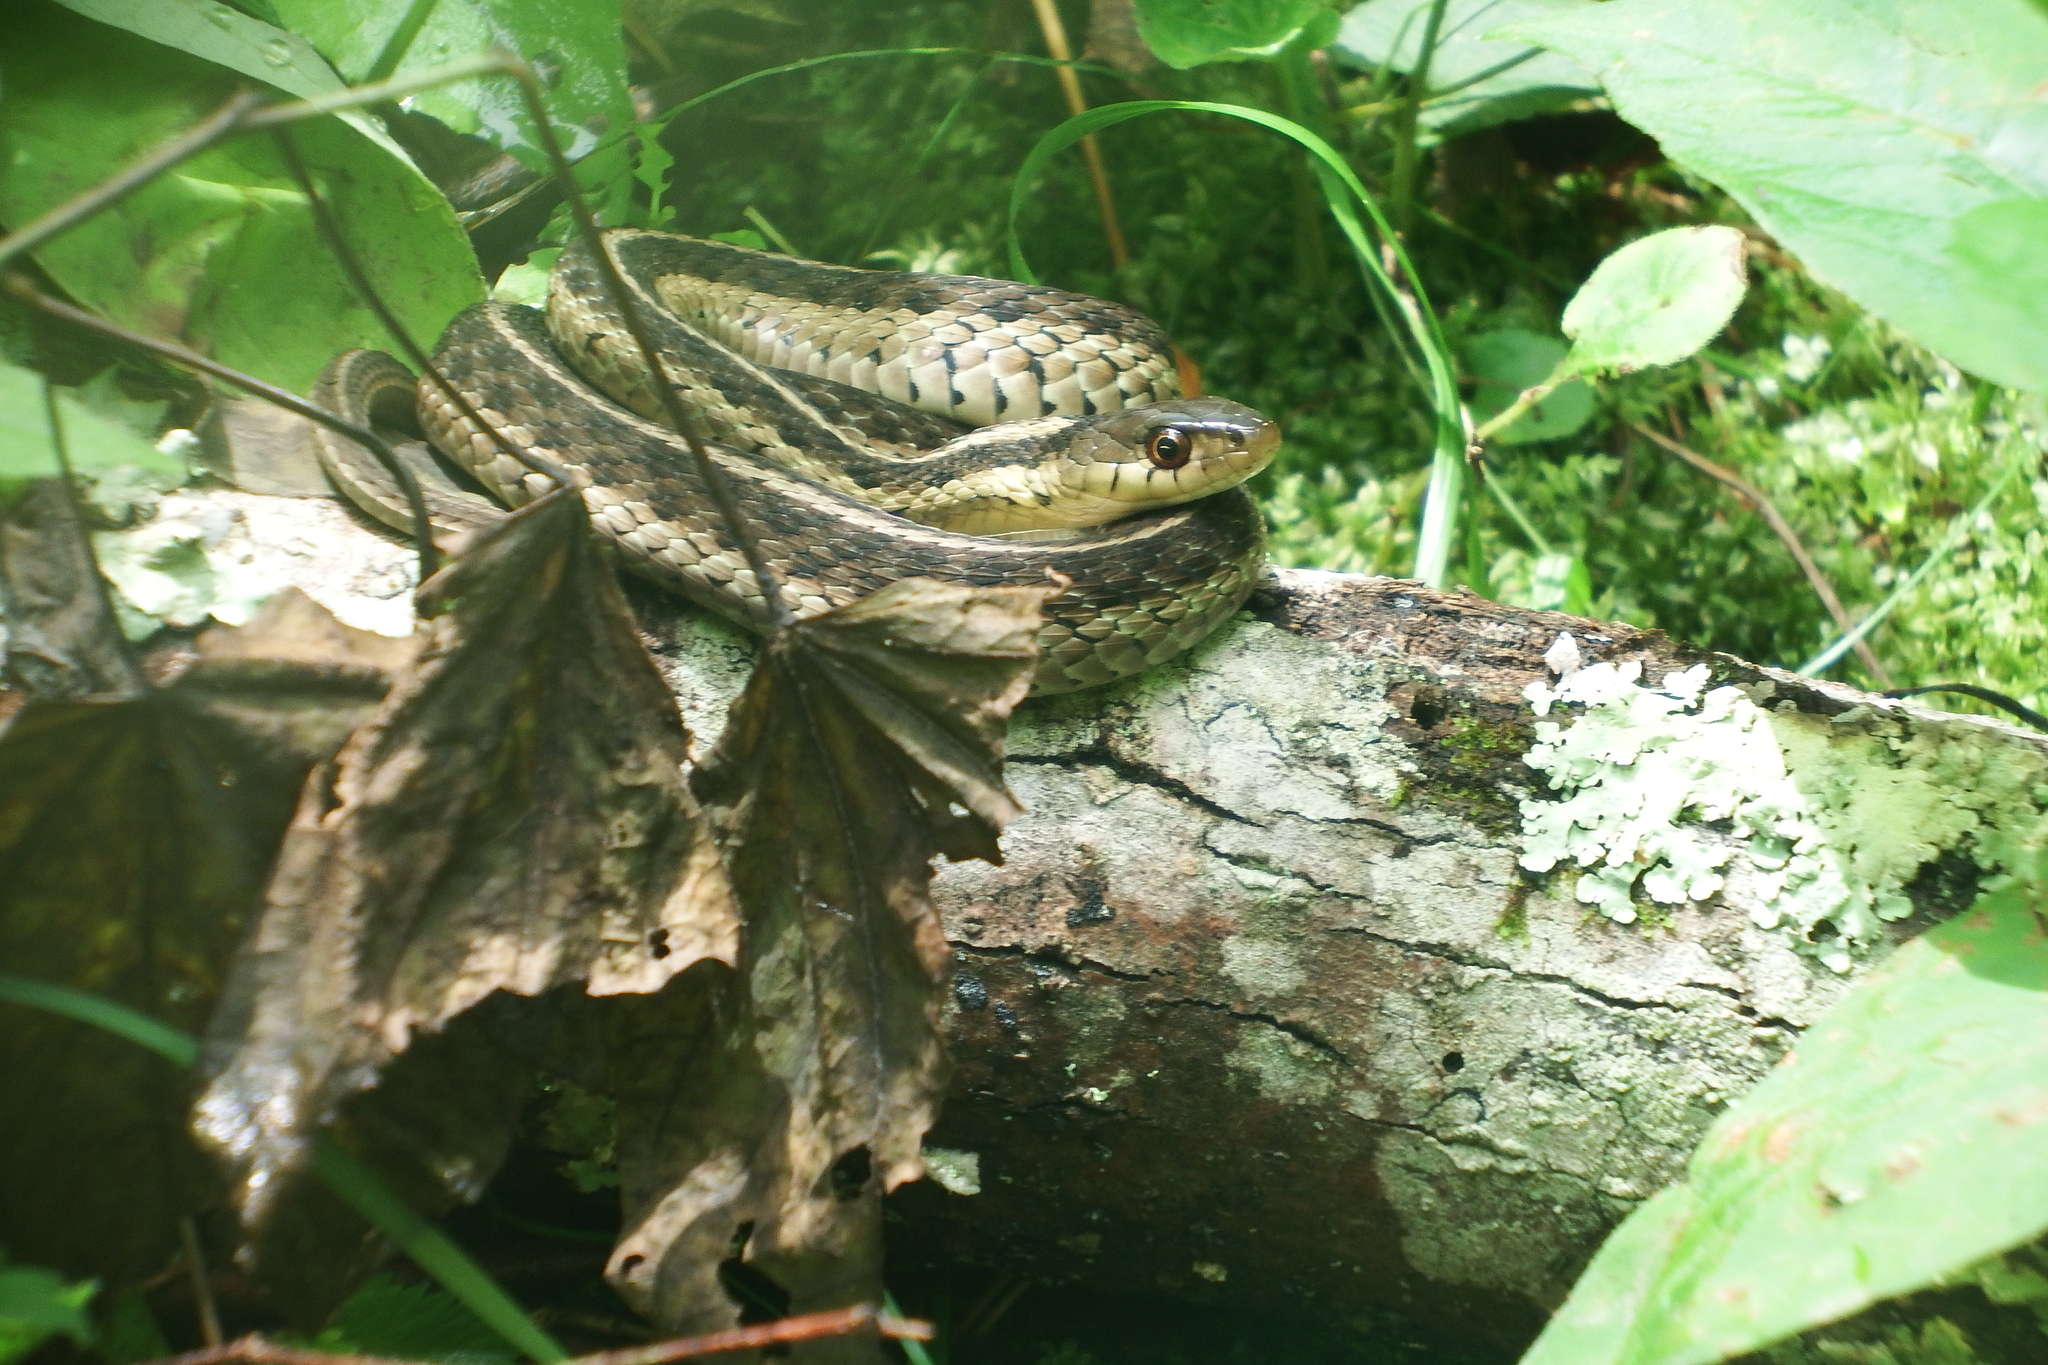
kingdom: Animalia
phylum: Chordata
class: Squamata
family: Colubridae
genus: Thamnophis
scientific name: Thamnophis sirtalis
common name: Common garter snake
